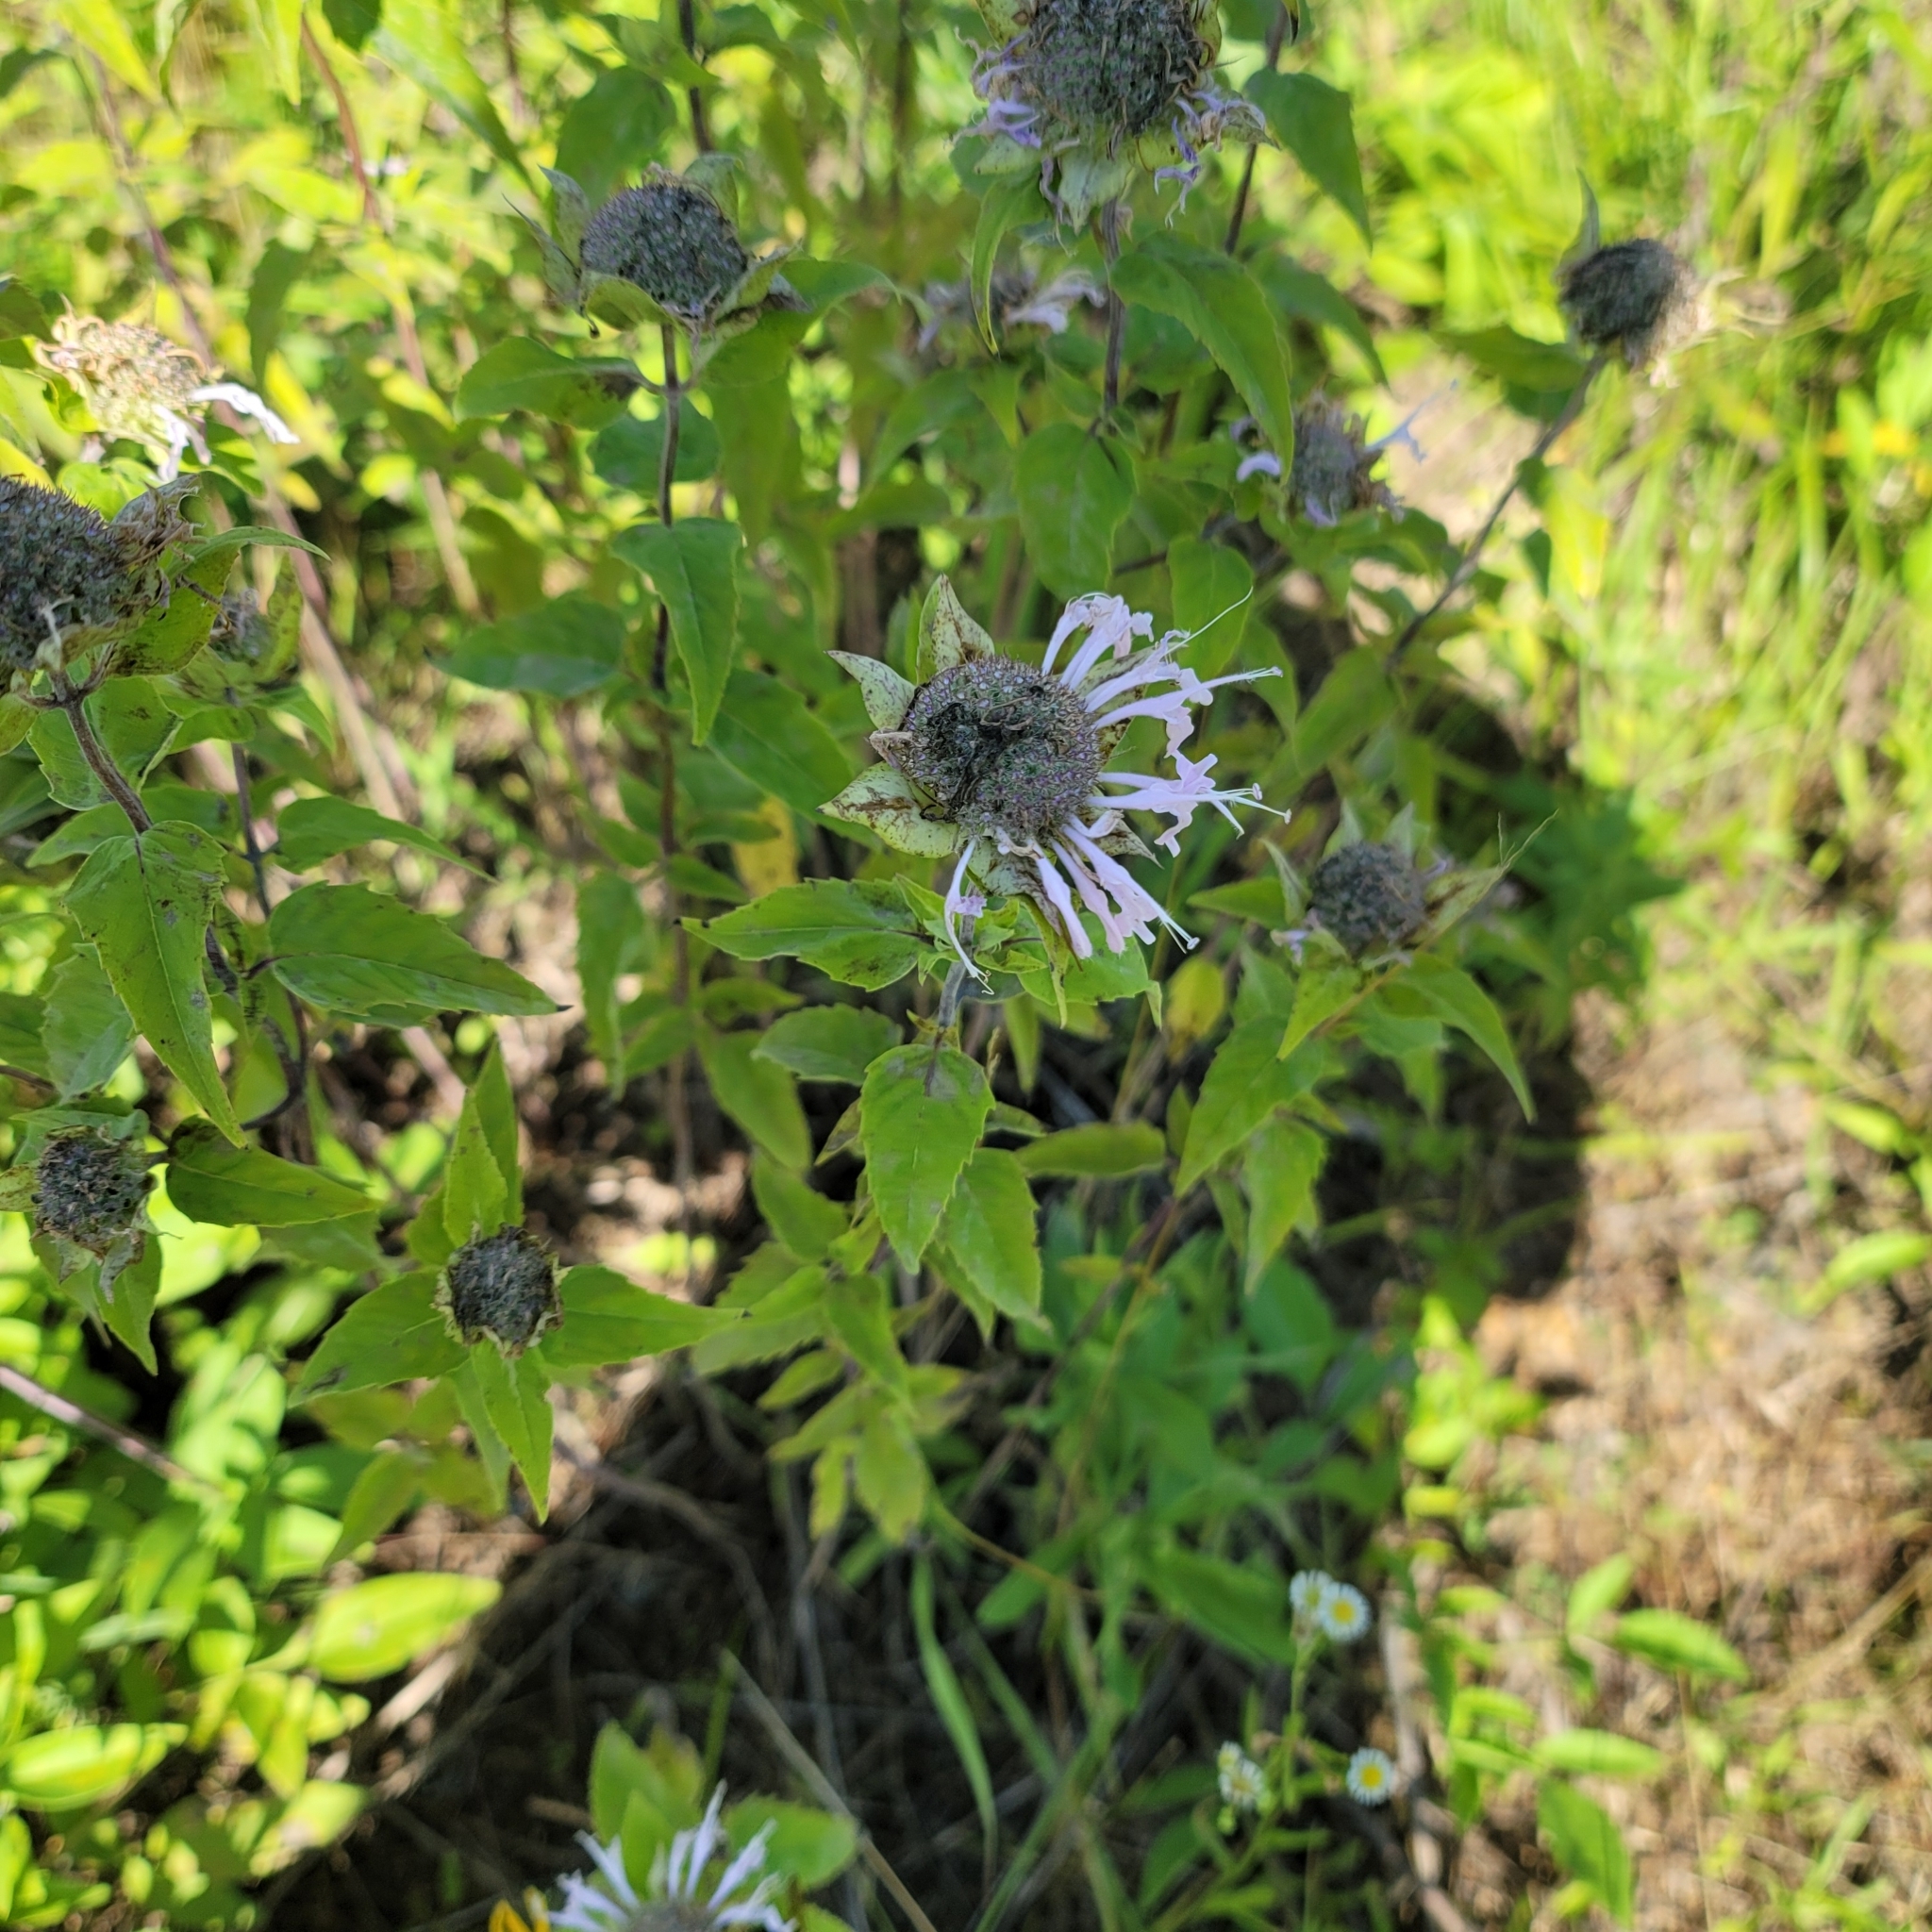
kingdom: Plantae
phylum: Tracheophyta
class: Magnoliopsida
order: Lamiales
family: Lamiaceae
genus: Monarda
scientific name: Monarda fistulosa
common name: Purple beebalm
